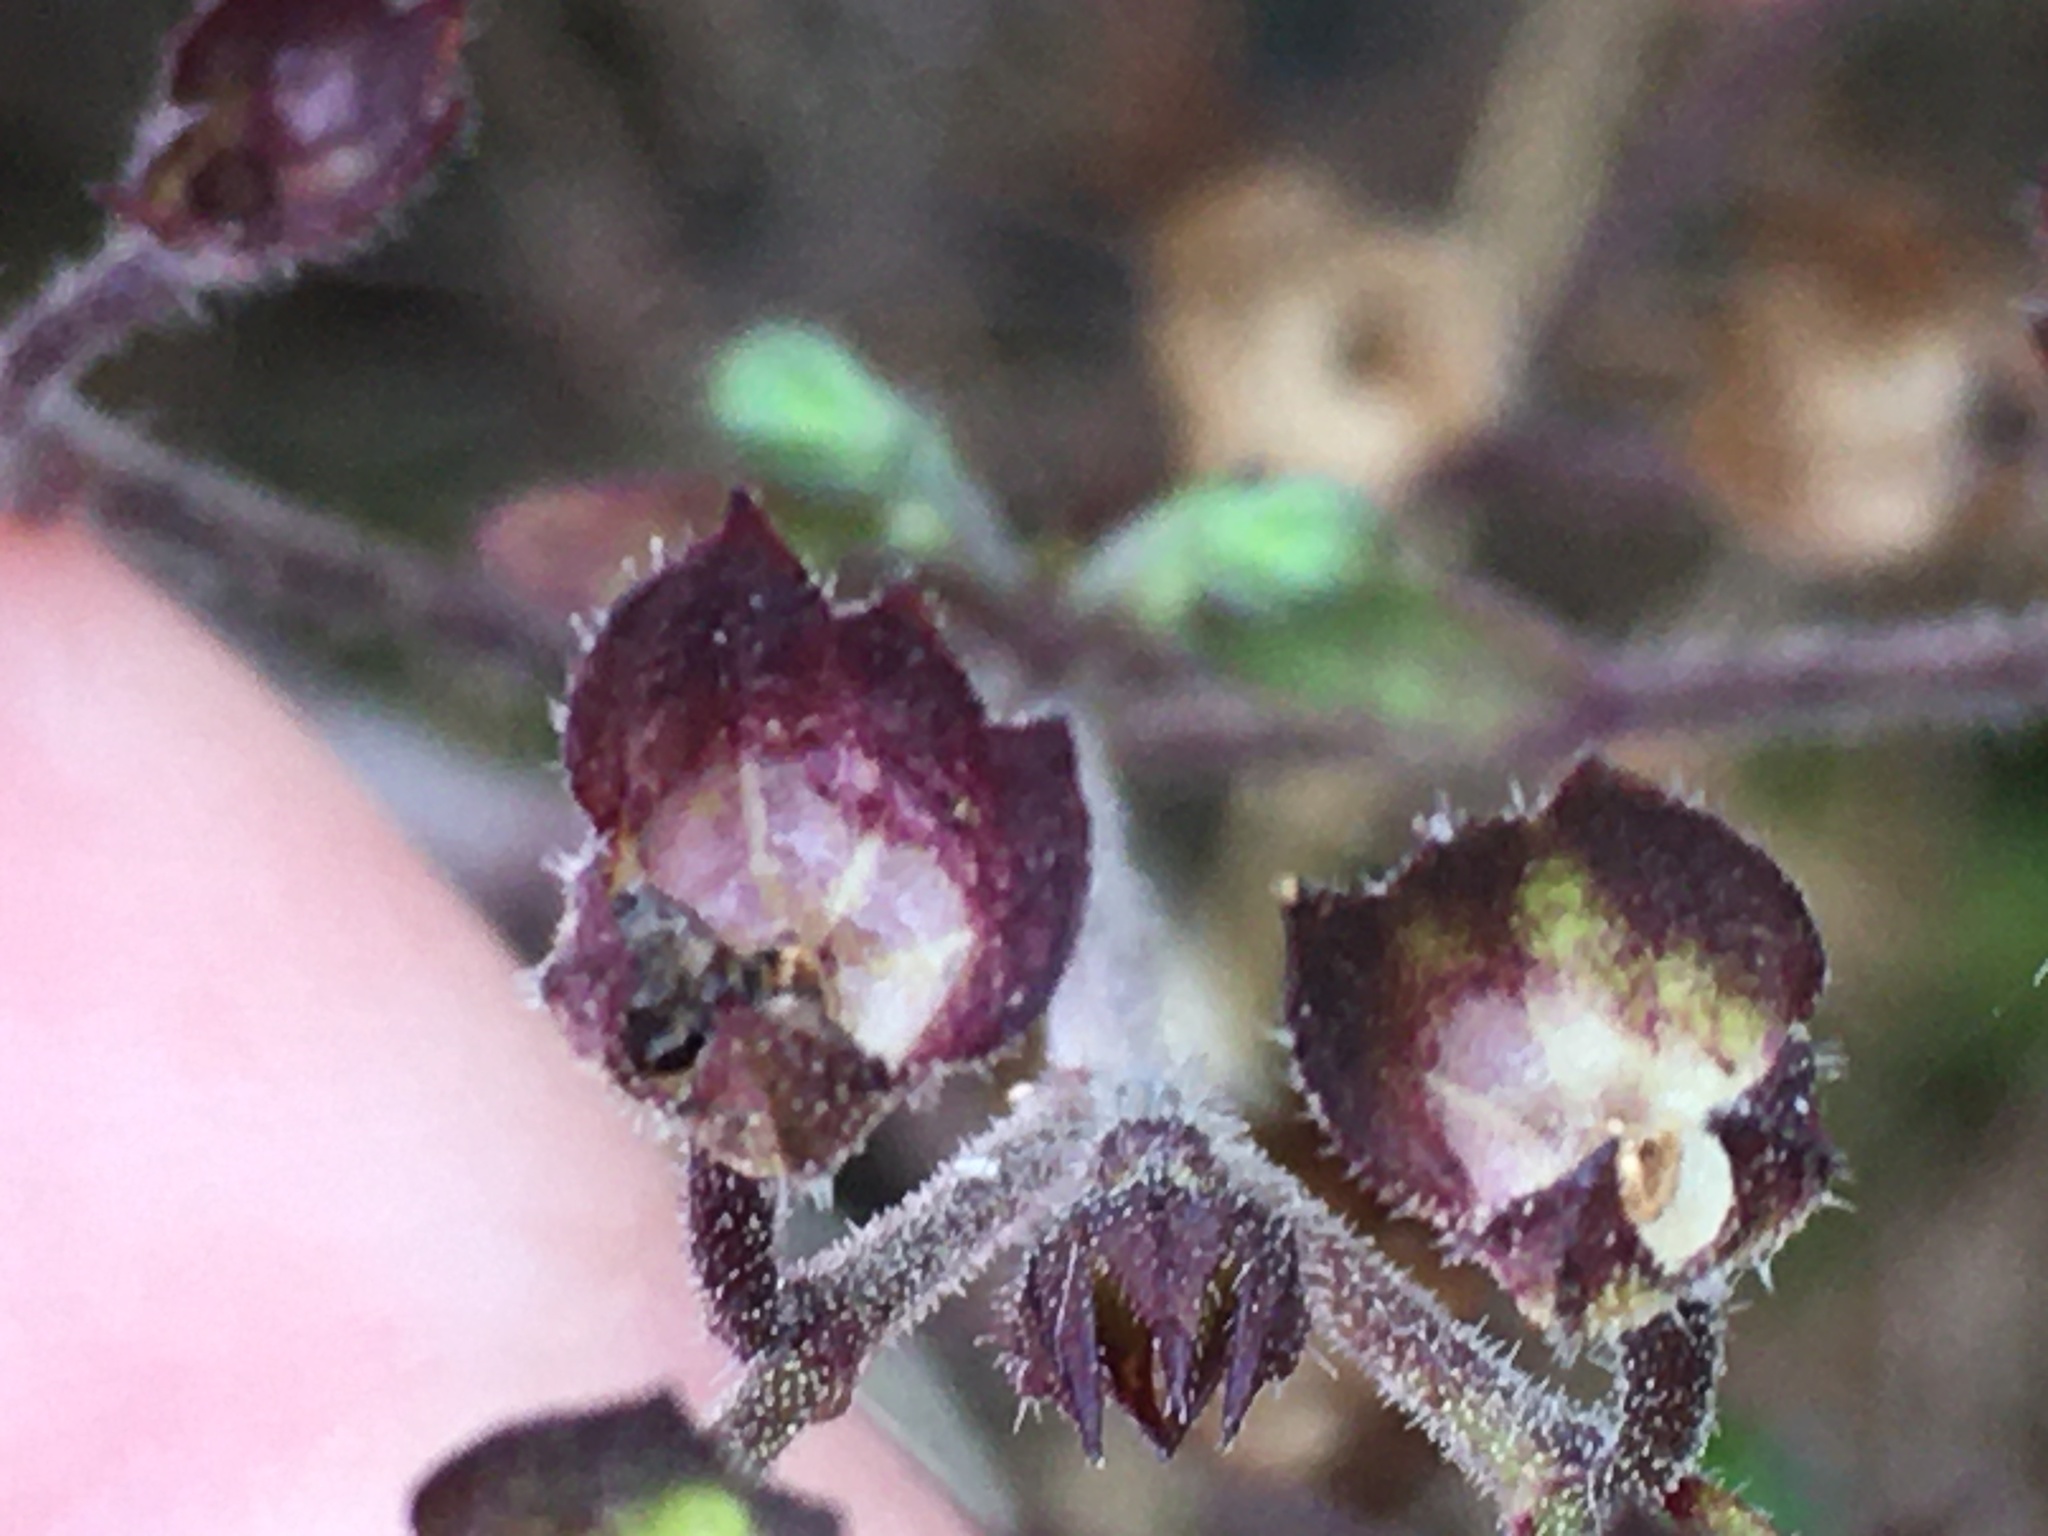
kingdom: Plantae
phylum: Tracheophyta
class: Magnoliopsida
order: Lamiales
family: Lamiaceae
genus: Trichostema
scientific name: Trichostema dichotomum
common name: Bastard pennyroyal
